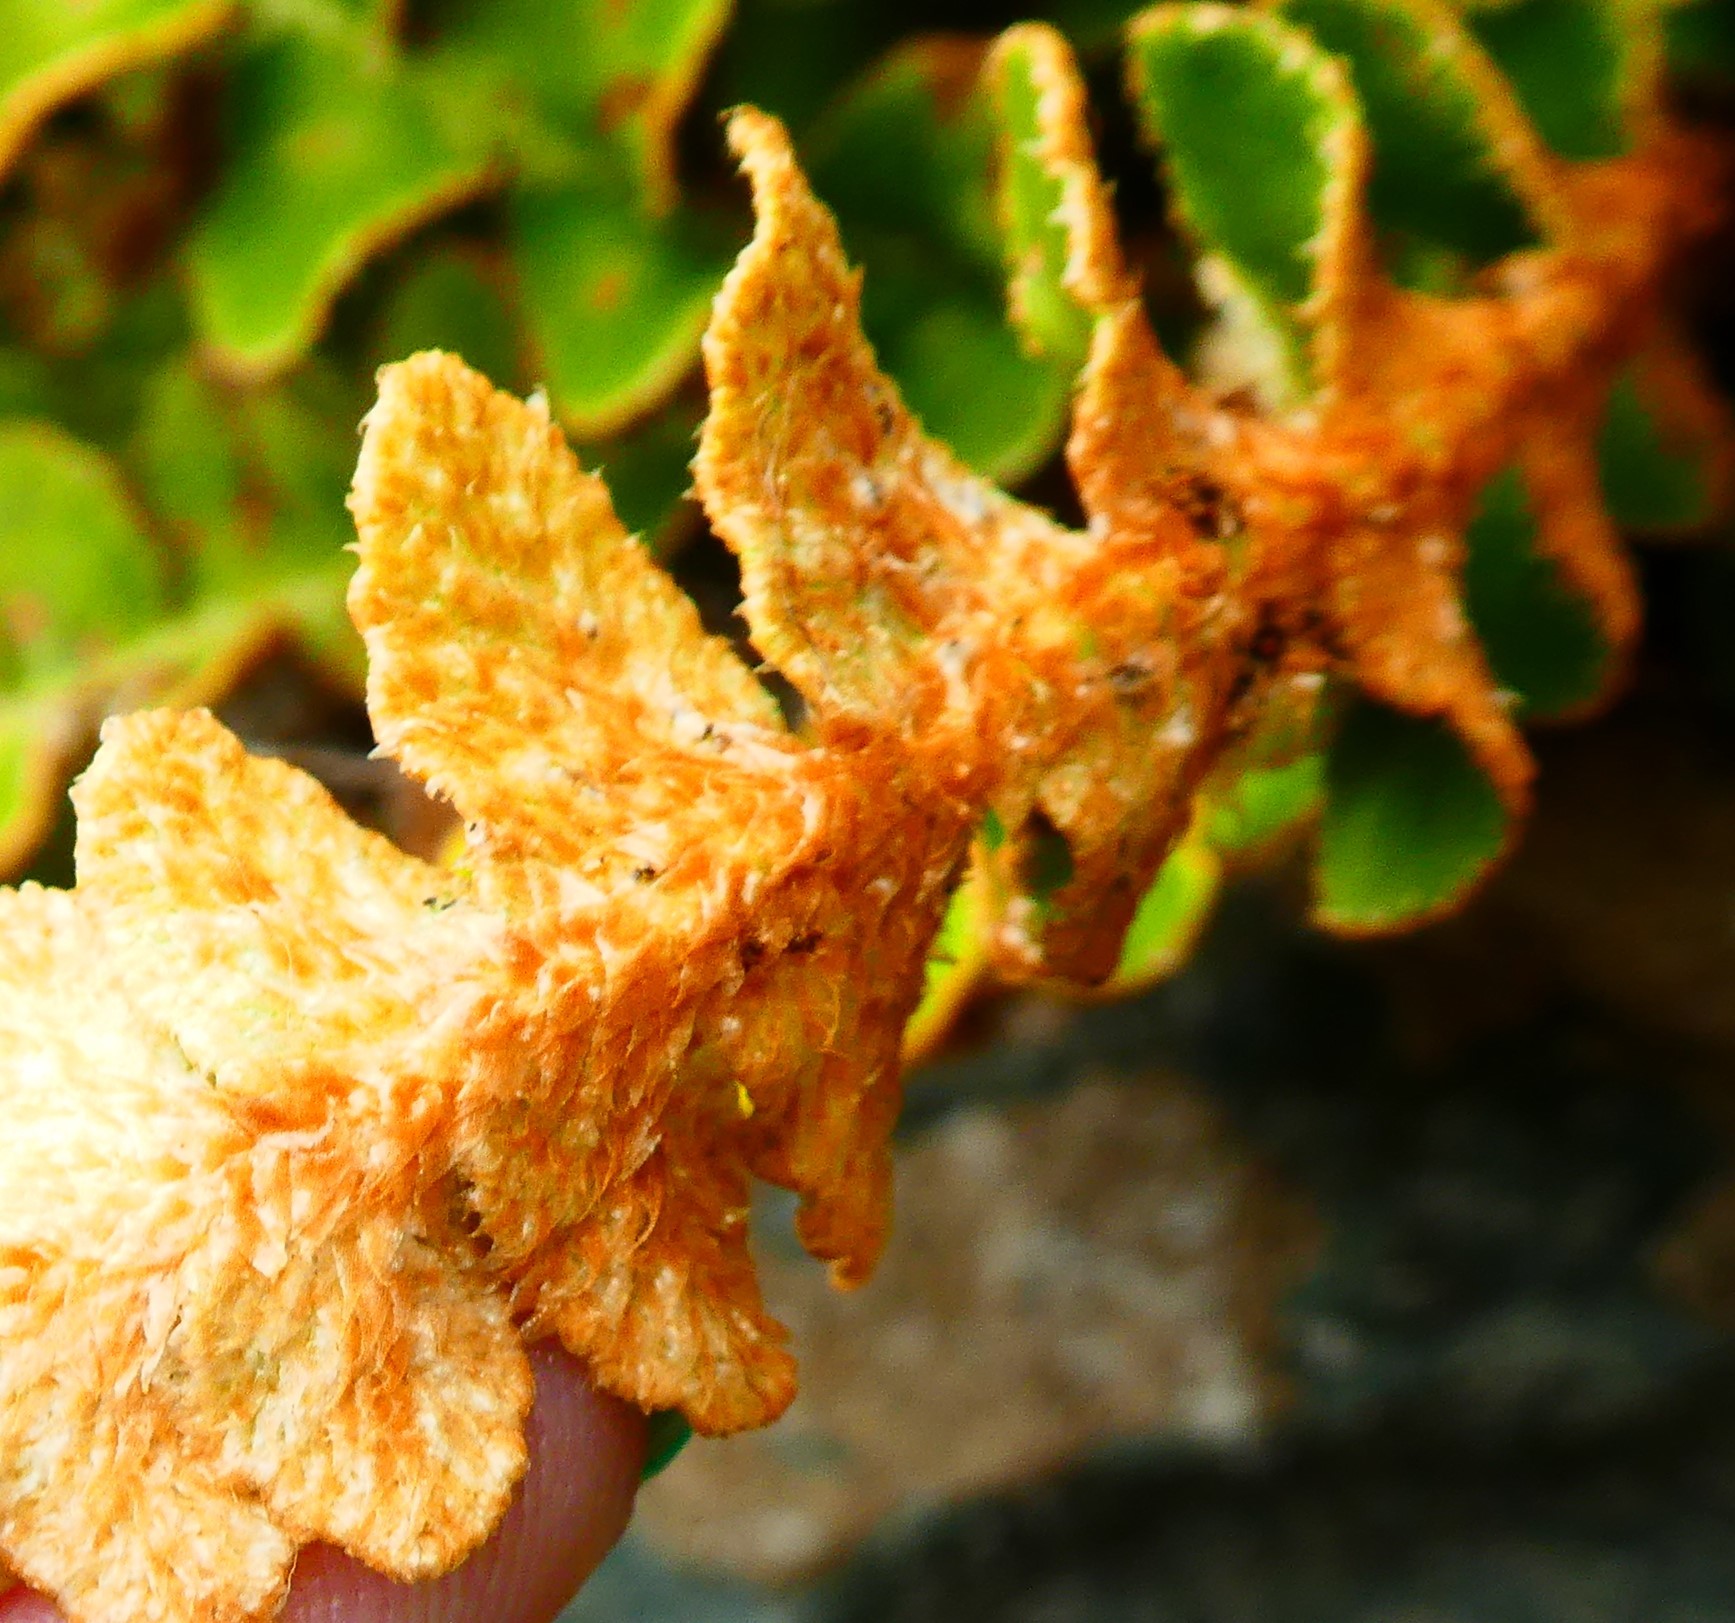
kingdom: Plantae
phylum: Tracheophyta
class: Polypodiopsida
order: Polypodiales
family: Aspleniaceae
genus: Asplenium
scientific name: Asplenium ceterach
